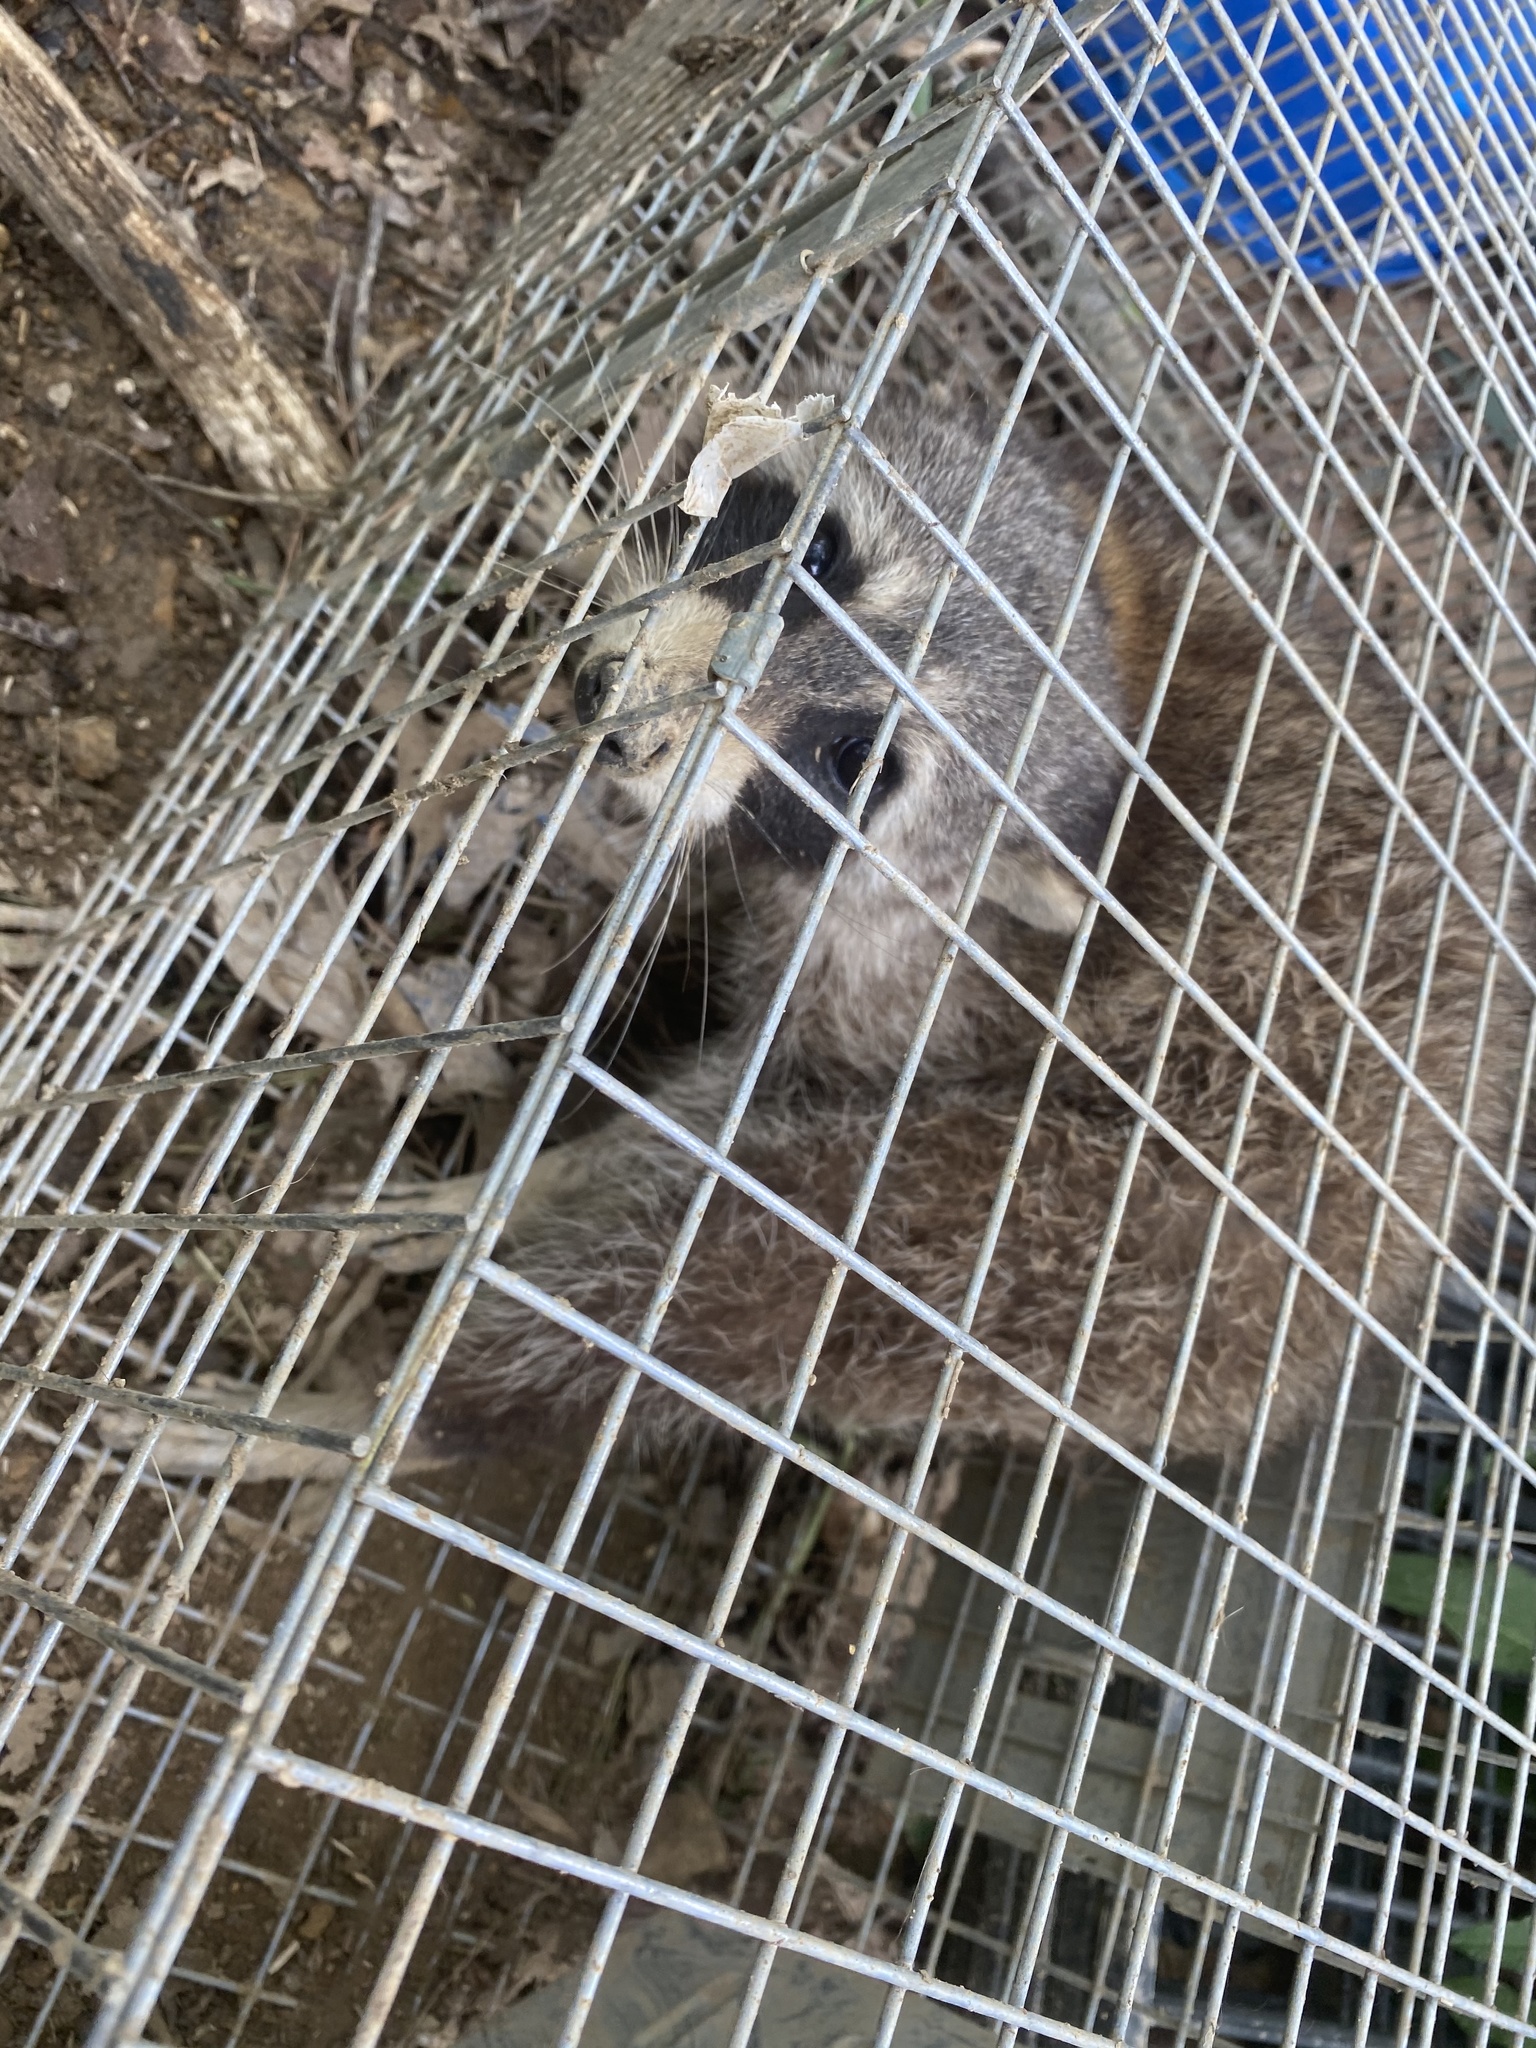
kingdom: Animalia
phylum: Chordata
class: Mammalia
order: Carnivora
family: Procyonidae
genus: Procyon
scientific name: Procyon lotor
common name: Raccoon
